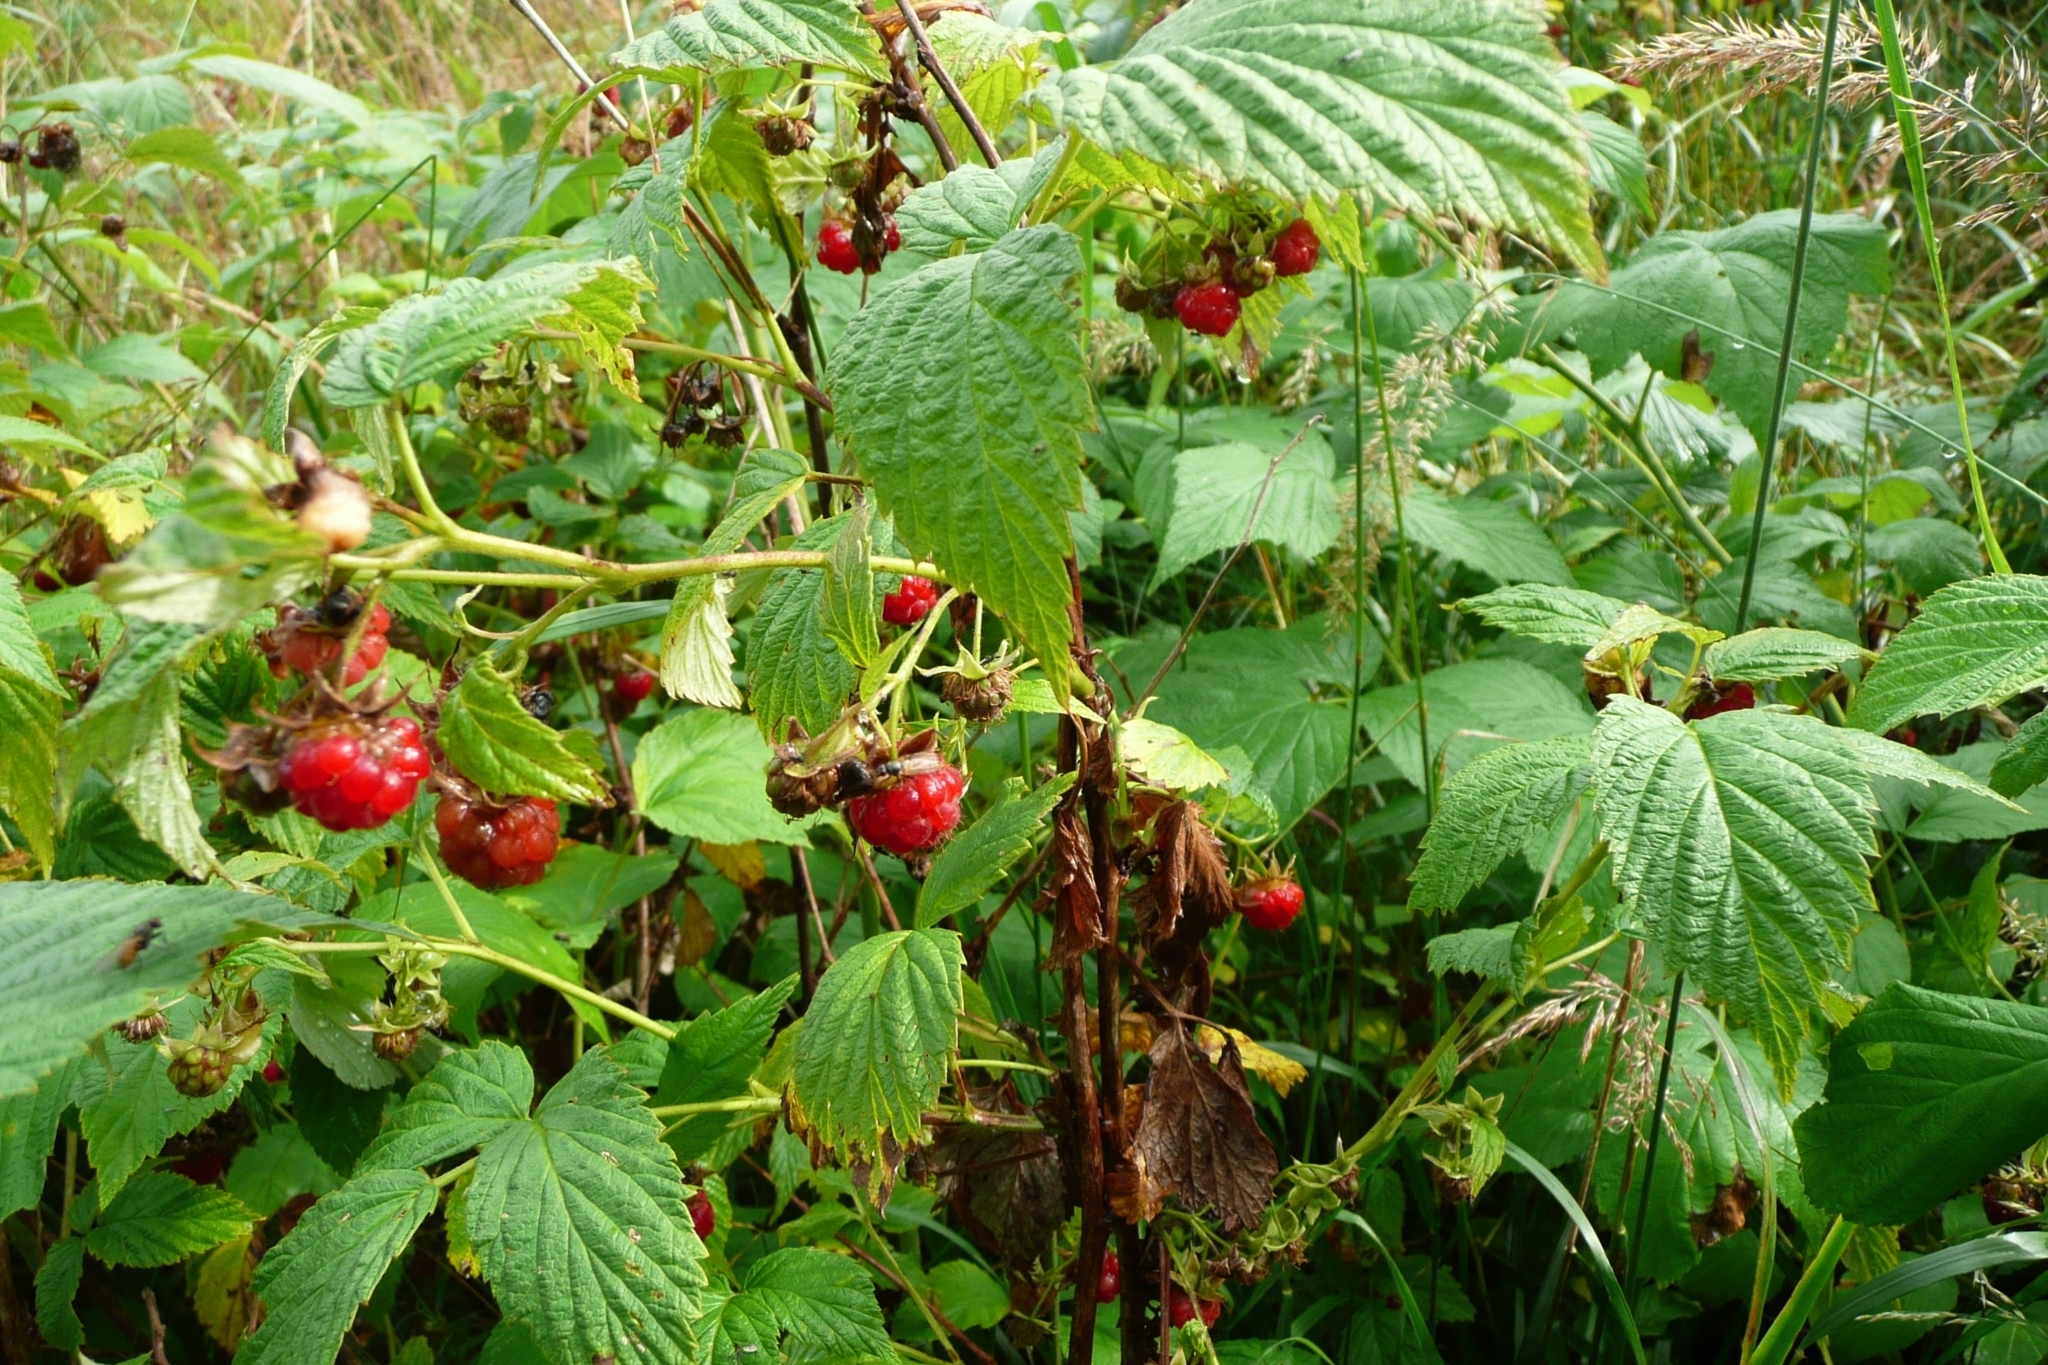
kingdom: Plantae
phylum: Tracheophyta
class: Magnoliopsida
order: Rosales
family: Rosaceae
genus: Rubus
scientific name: Rubus idaeus
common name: Raspberry
